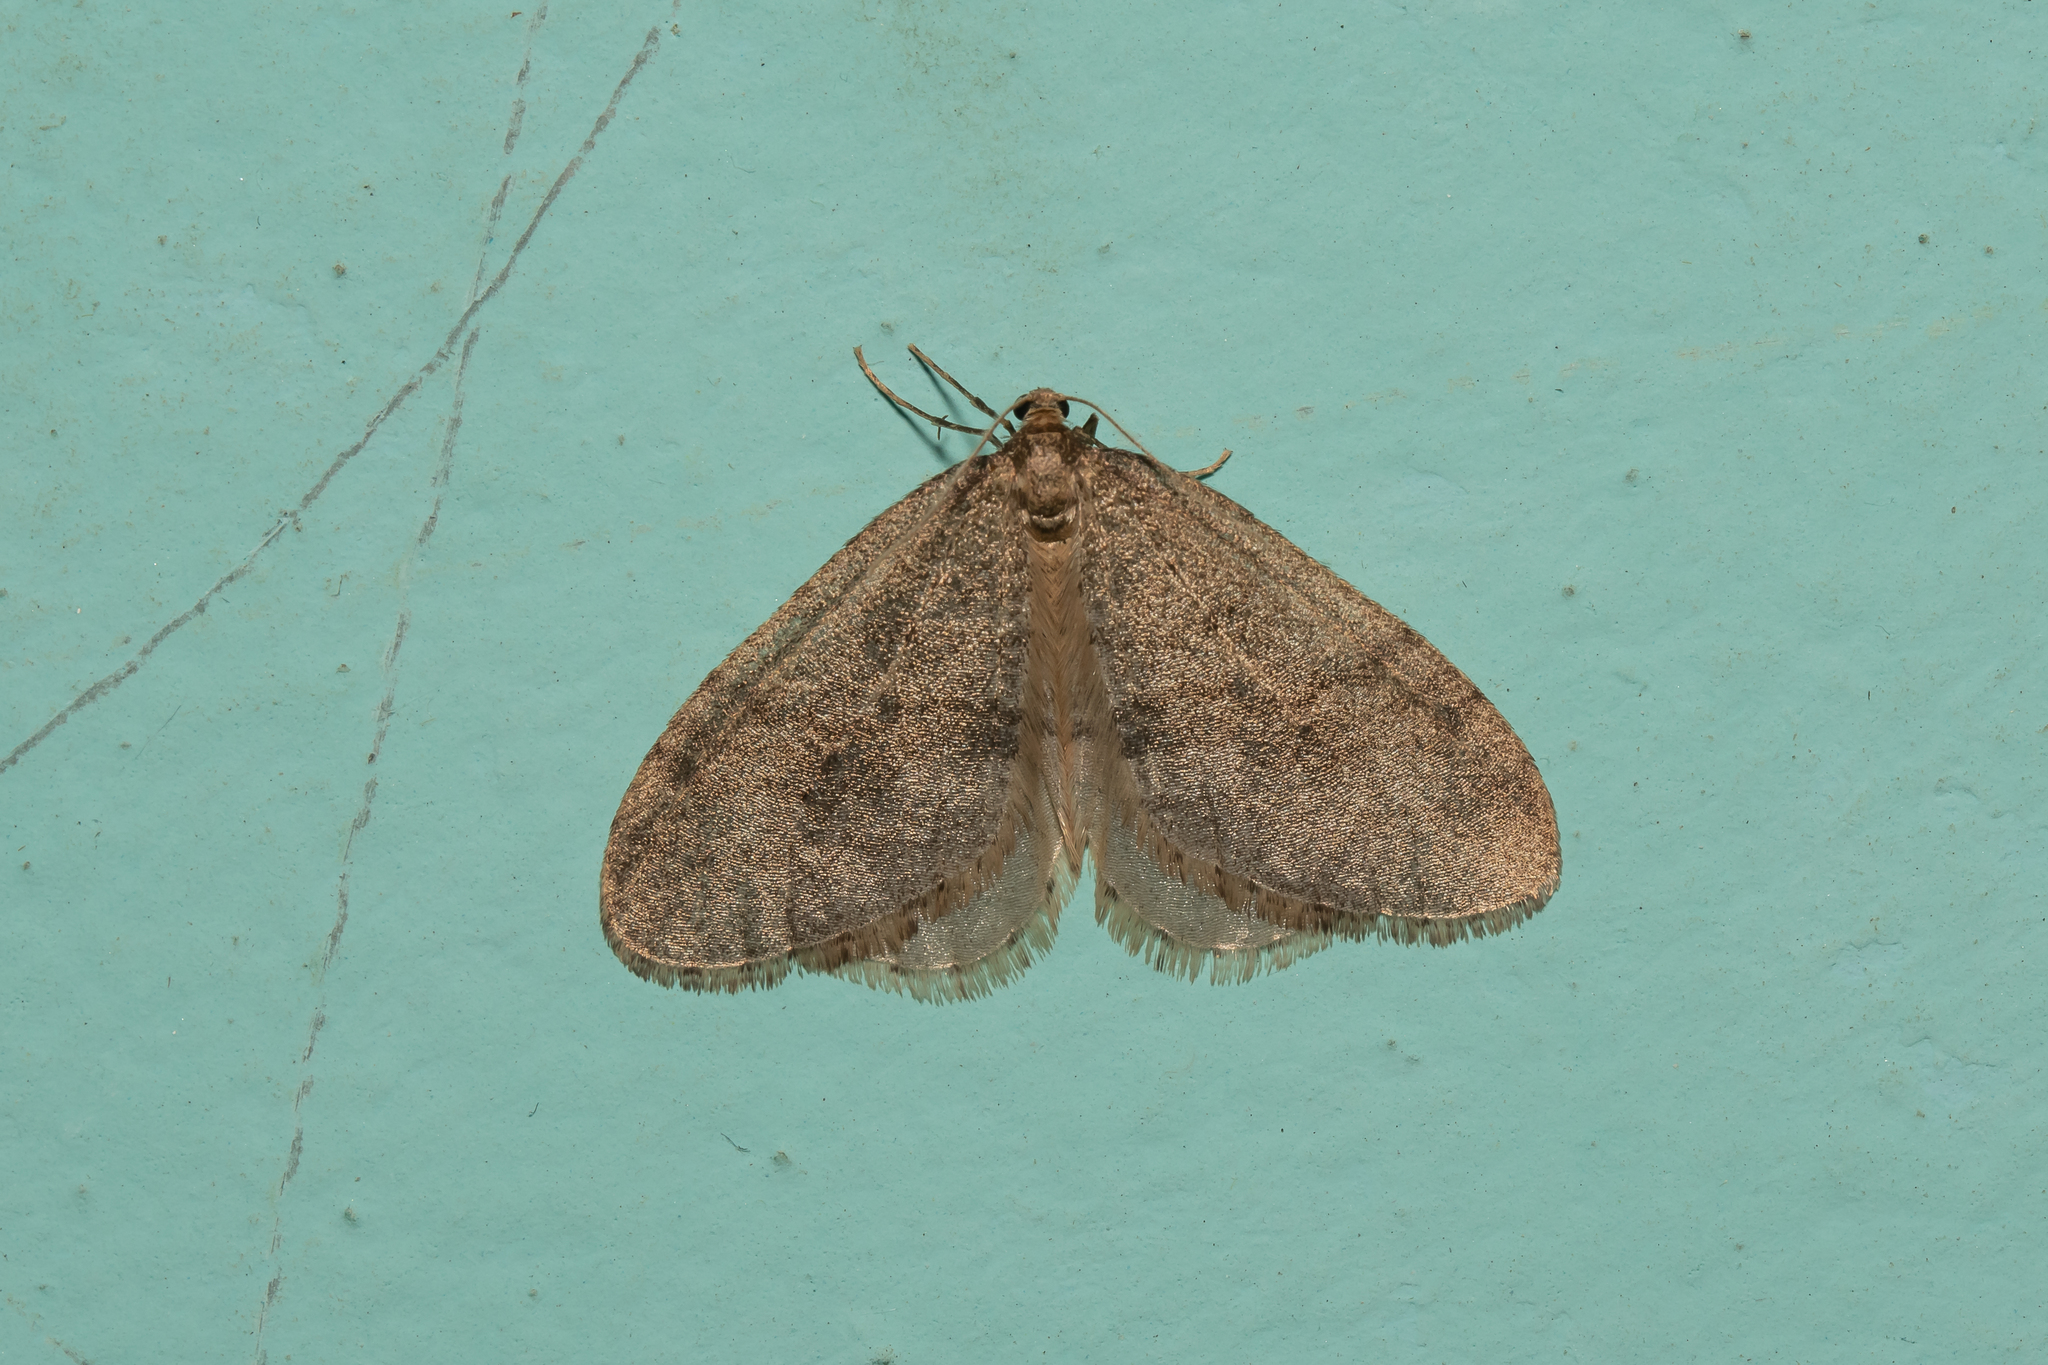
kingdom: Animalia
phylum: Arthropoda
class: Insecta
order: Lepidoptera
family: Geometridae
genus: Operophtera
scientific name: Operophtera brumata
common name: Winter moth
